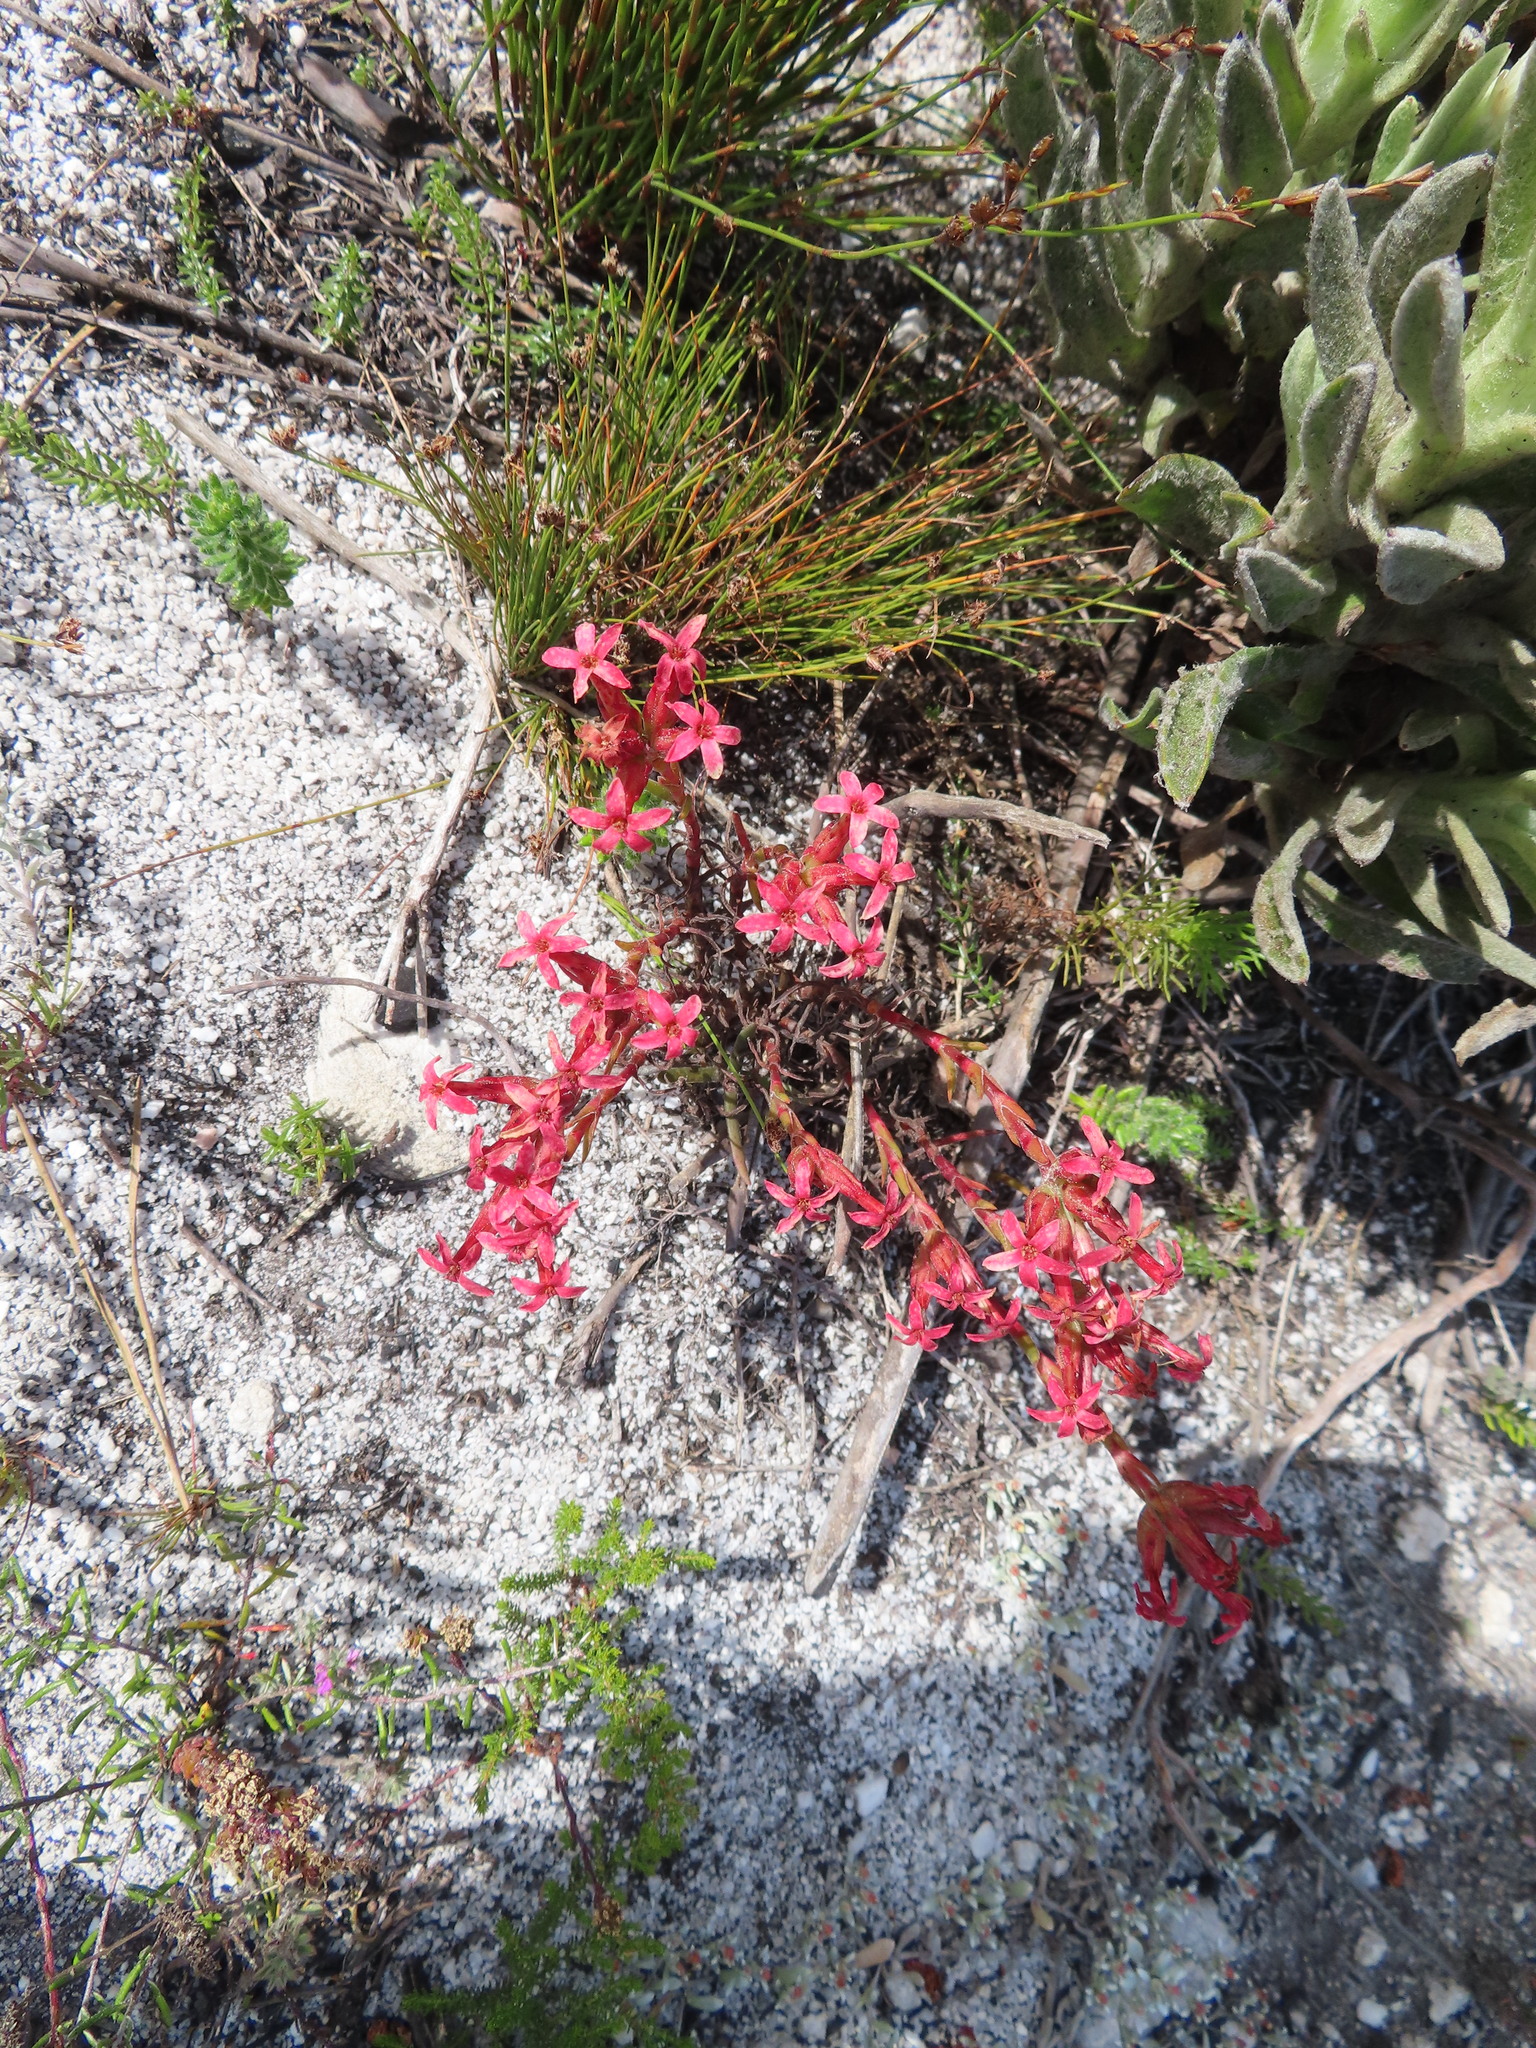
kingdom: Plantae
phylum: Tracheophyta
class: Magnoliopsida
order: Saxifragales
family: Crassulaceae
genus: Crassula
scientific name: Crassula fascicularis
